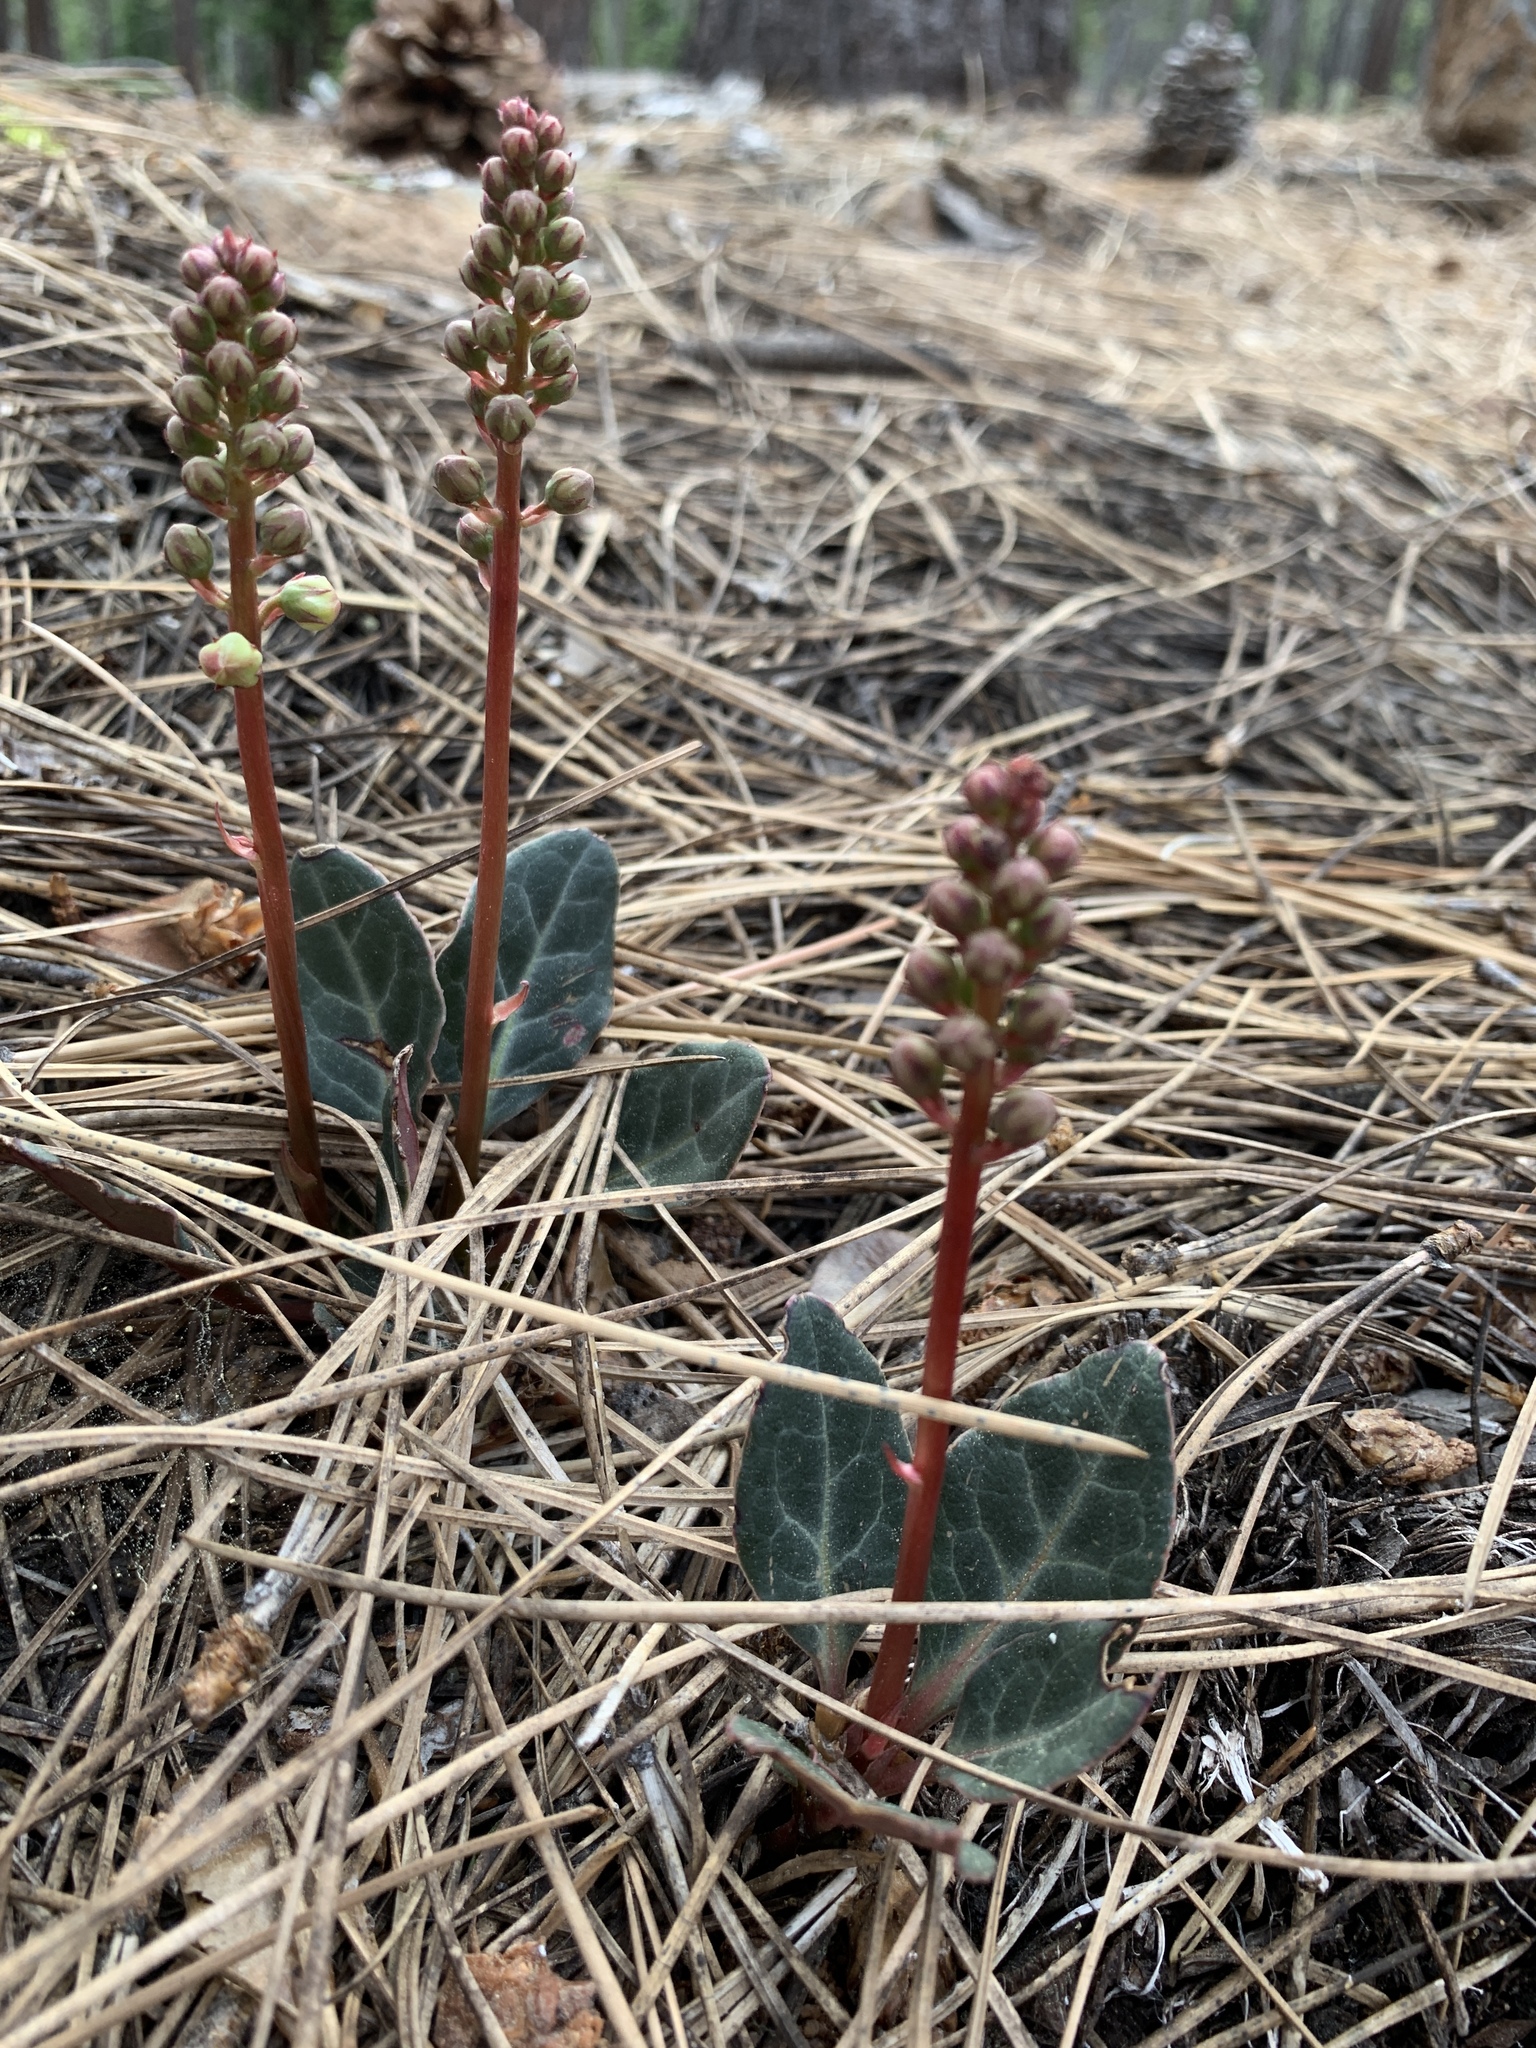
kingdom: Plantae
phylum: Tracheophyta
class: Magnoliopsida
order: Ericales
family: Ericaceae
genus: Pyrola
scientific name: Pyrola picta
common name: White-vein wintergreen
